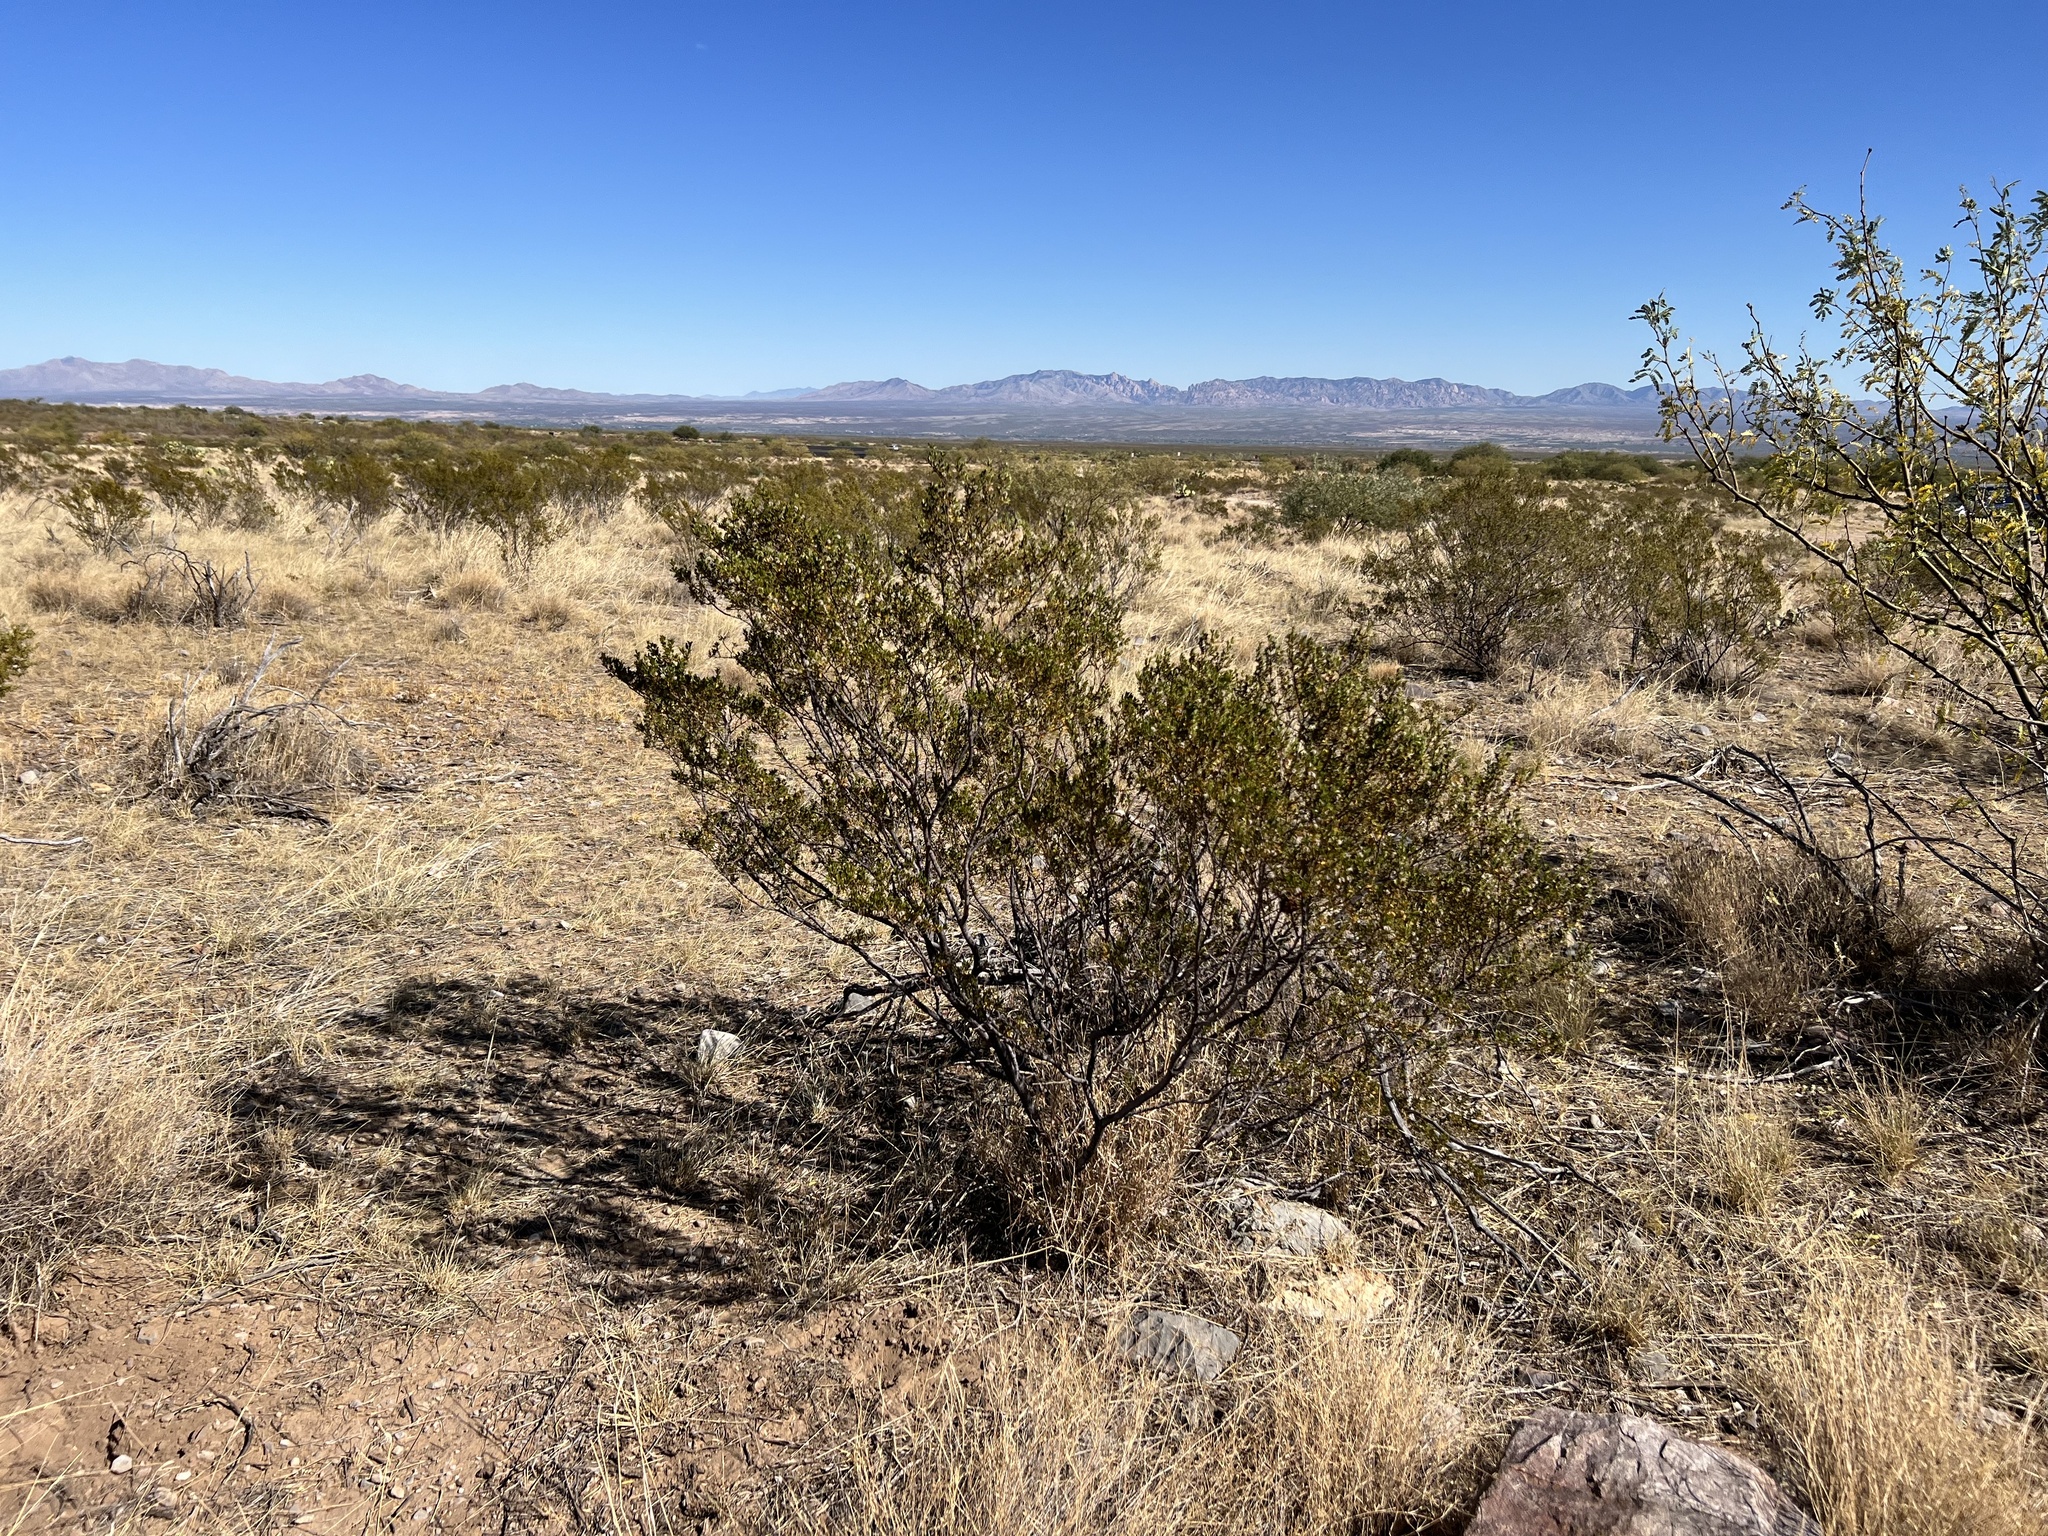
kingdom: Plantae
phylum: Tracheophyta
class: Magnoliopsida
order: Zygophyllales
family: Zygophyllaceae
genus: Larrea
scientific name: Larrea tridentata
